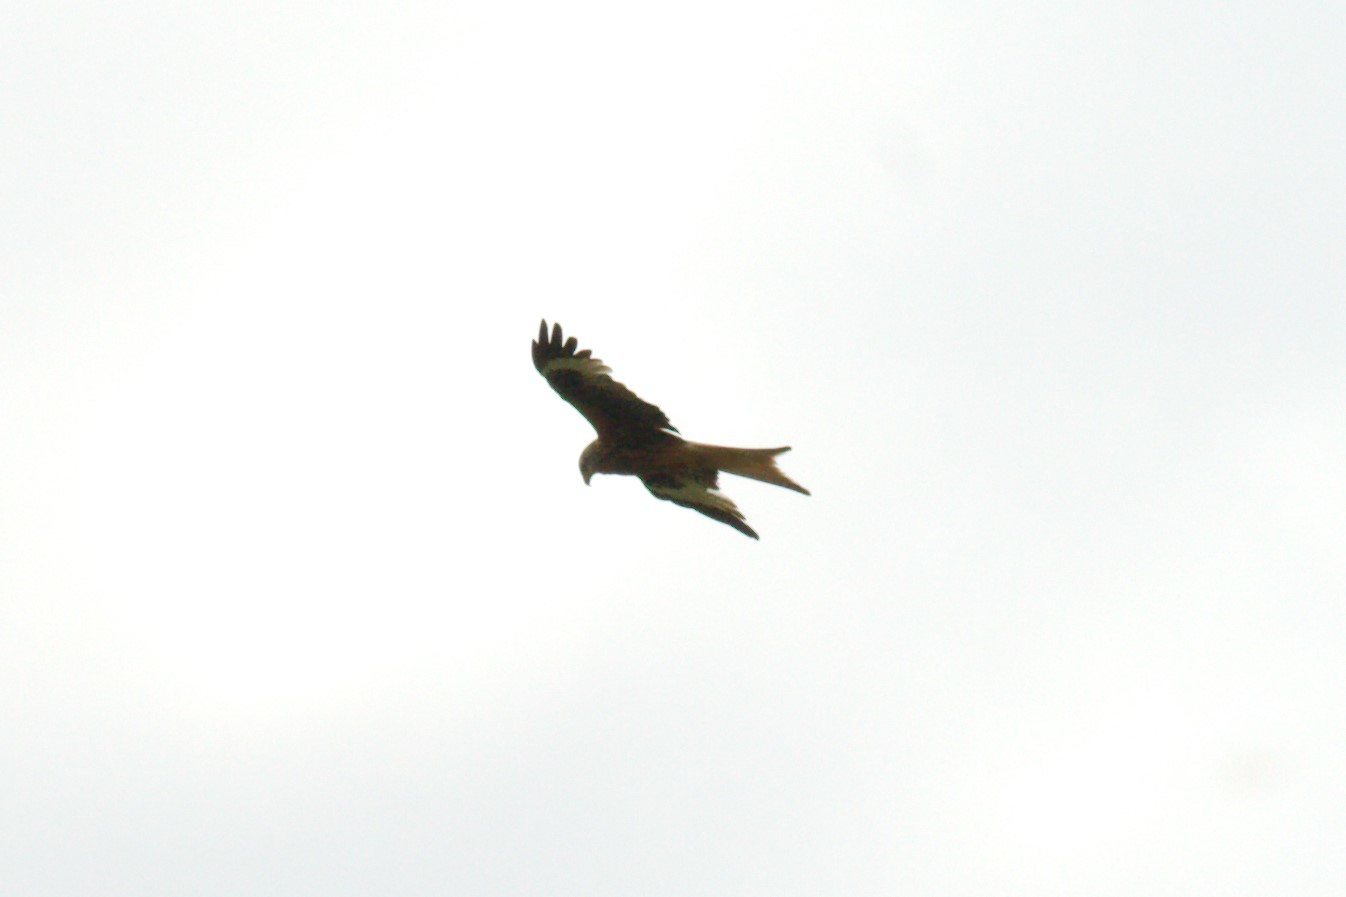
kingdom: Animalia
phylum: Chordata
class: Aves
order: Accipitriformes
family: Accipitridae
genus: Milvus
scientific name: Milvus milvus
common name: Red kite
